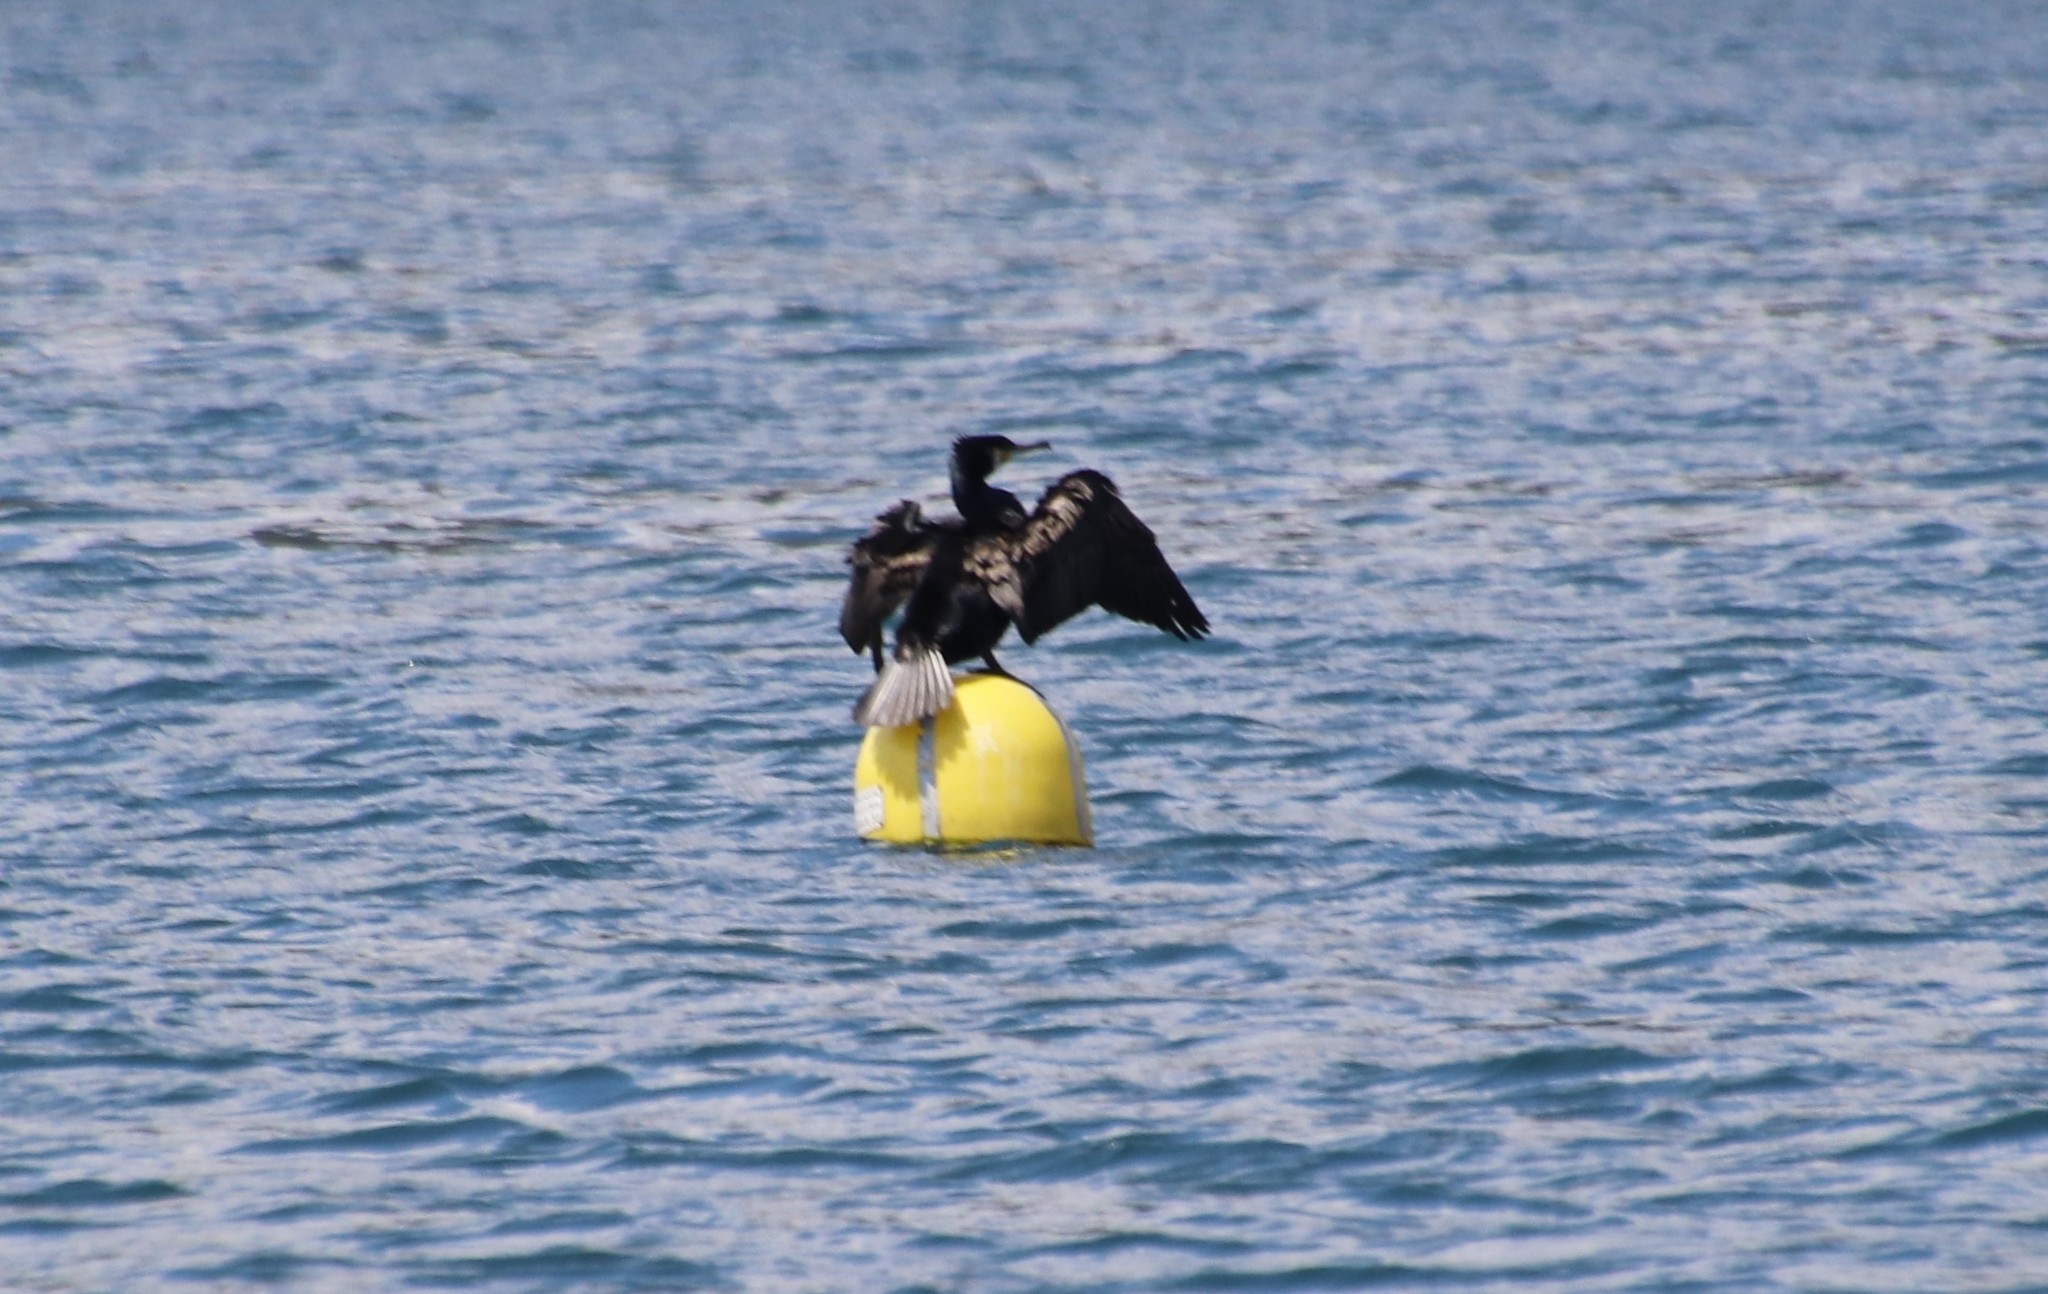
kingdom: Animalia
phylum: Chordata
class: Aves
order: Suliformes
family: Phalacrocoracidae
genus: Phalacrocorax
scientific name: Phalacrocorax carbo
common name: Great cormorant
